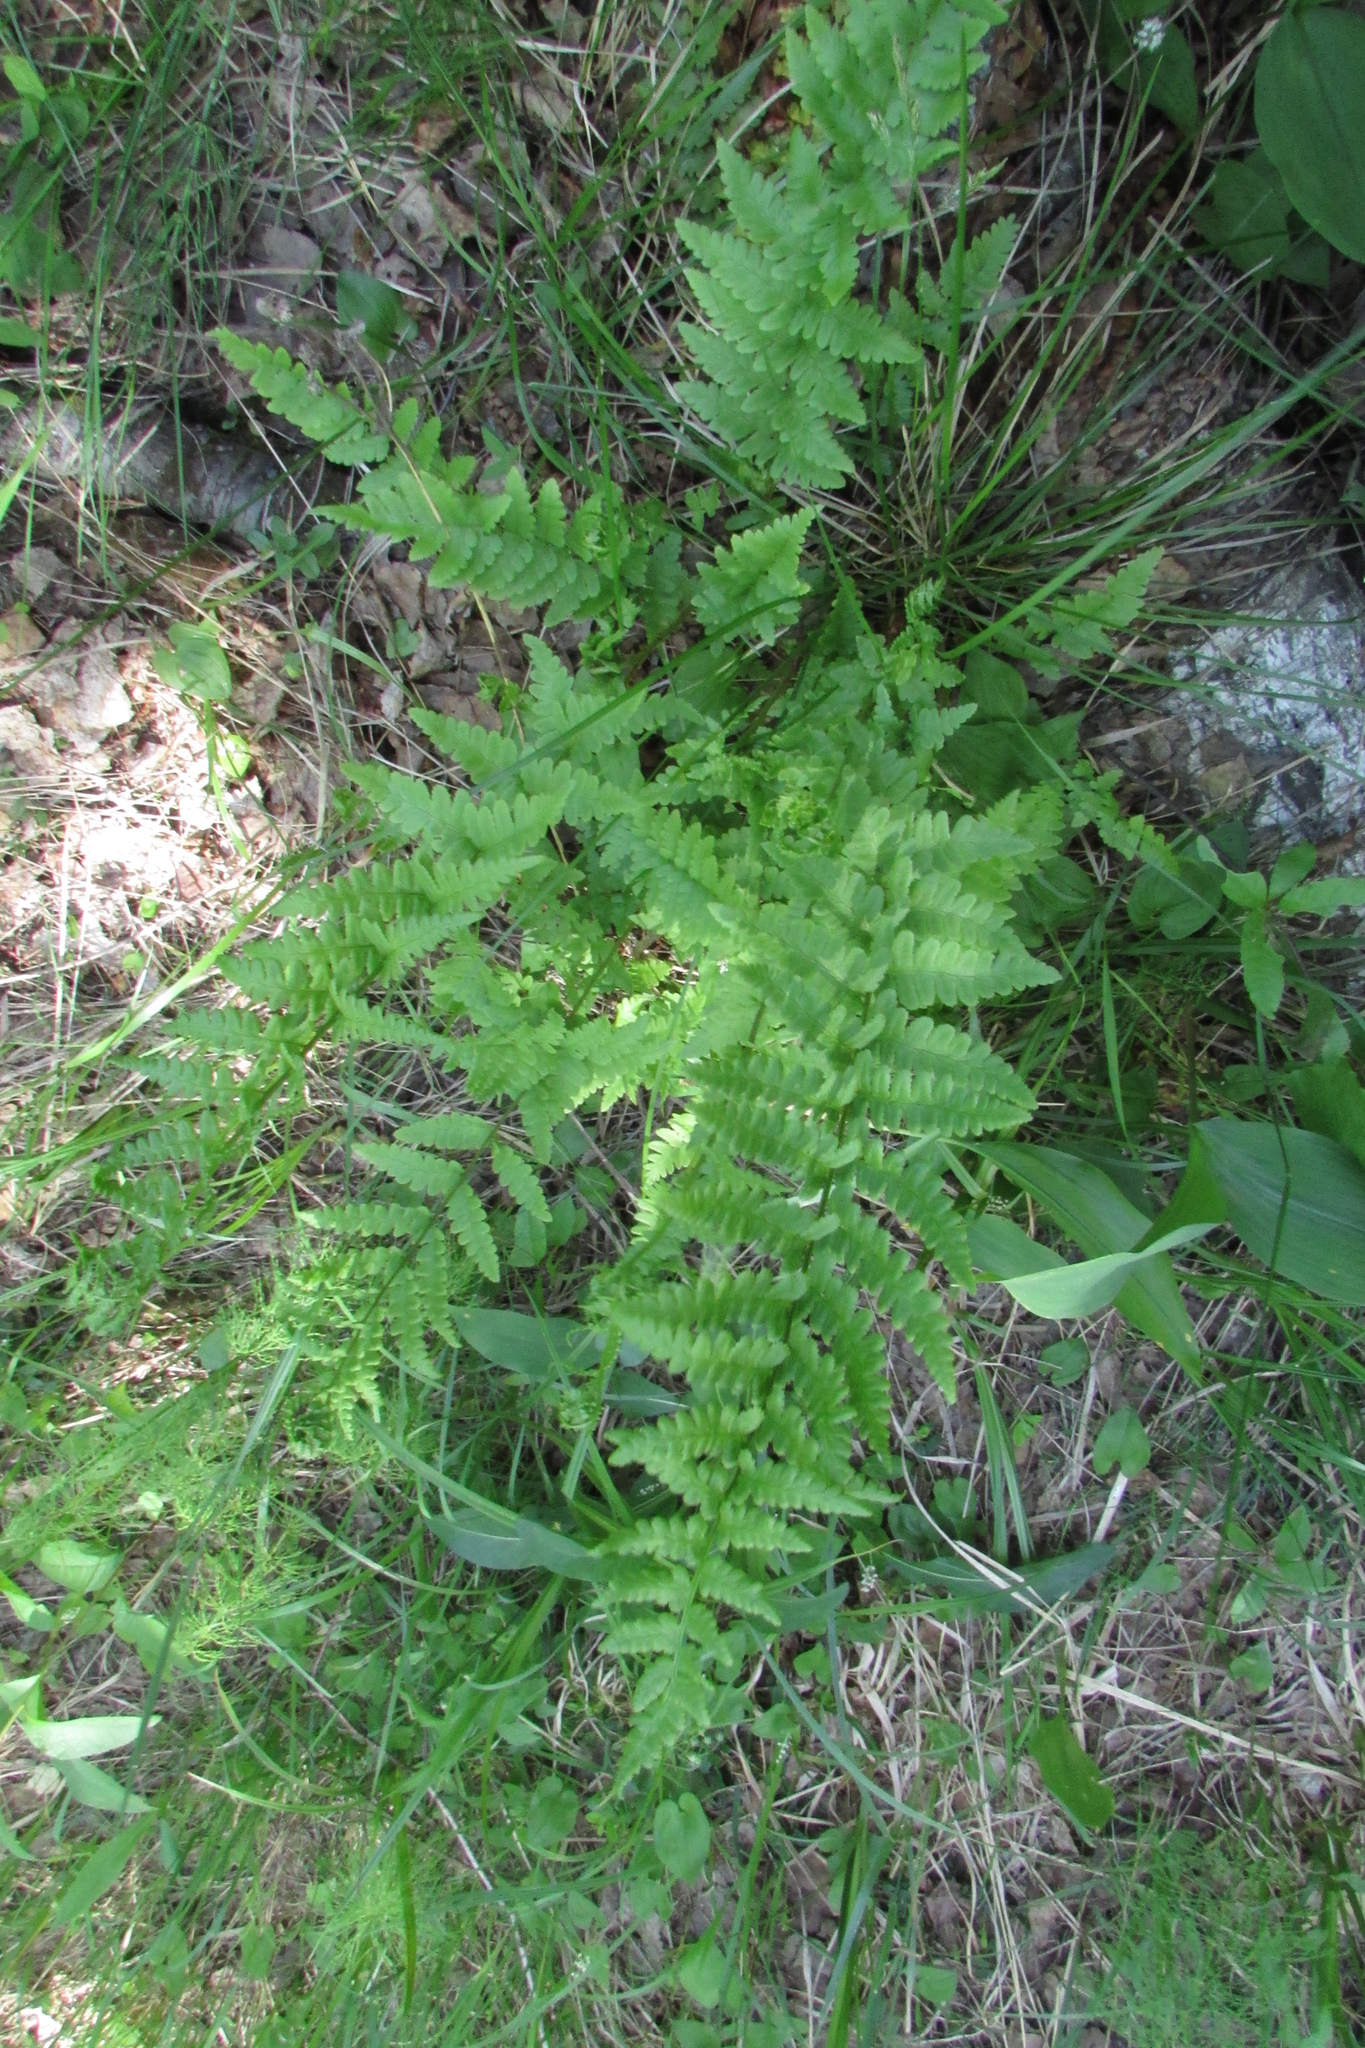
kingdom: Plantae
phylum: Tracheophyta
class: Polypodiopsida
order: Polypodiales
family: Dryopteridaceae
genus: Dryopteris
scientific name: Dryopteris cristata
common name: Crested wood fern
